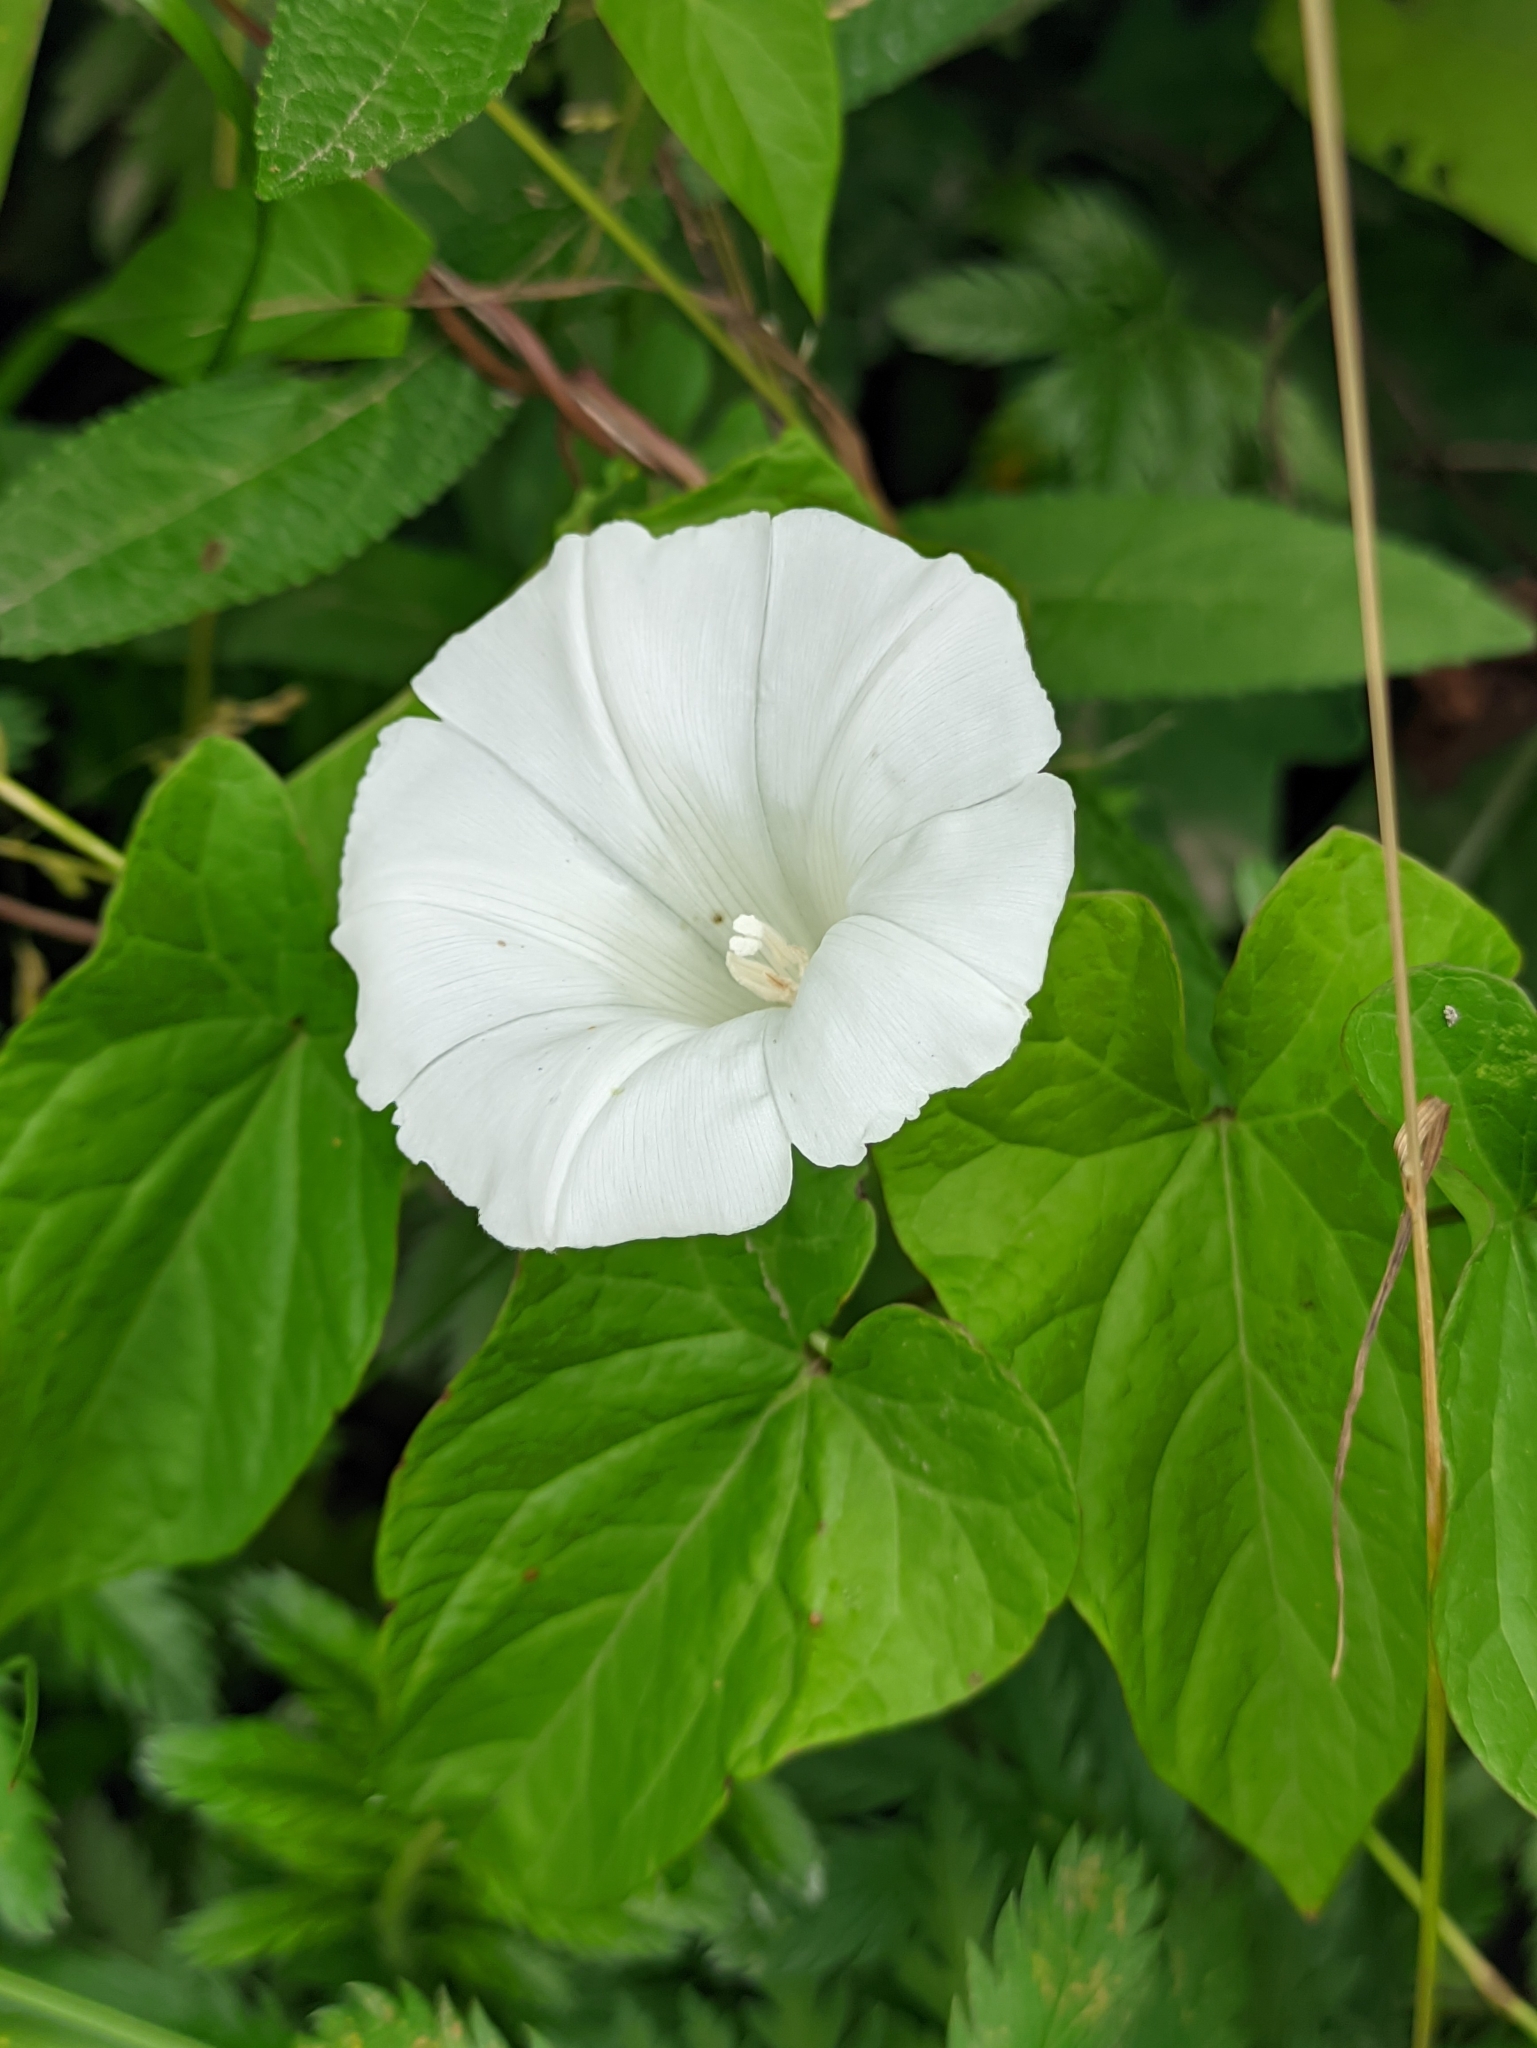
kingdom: Plantae
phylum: Tracheophyta
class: Magnoliopsida
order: Solanales
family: Convolvulaceae
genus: Calystegia
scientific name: Calystegia sepium
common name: Hedge bindweed
